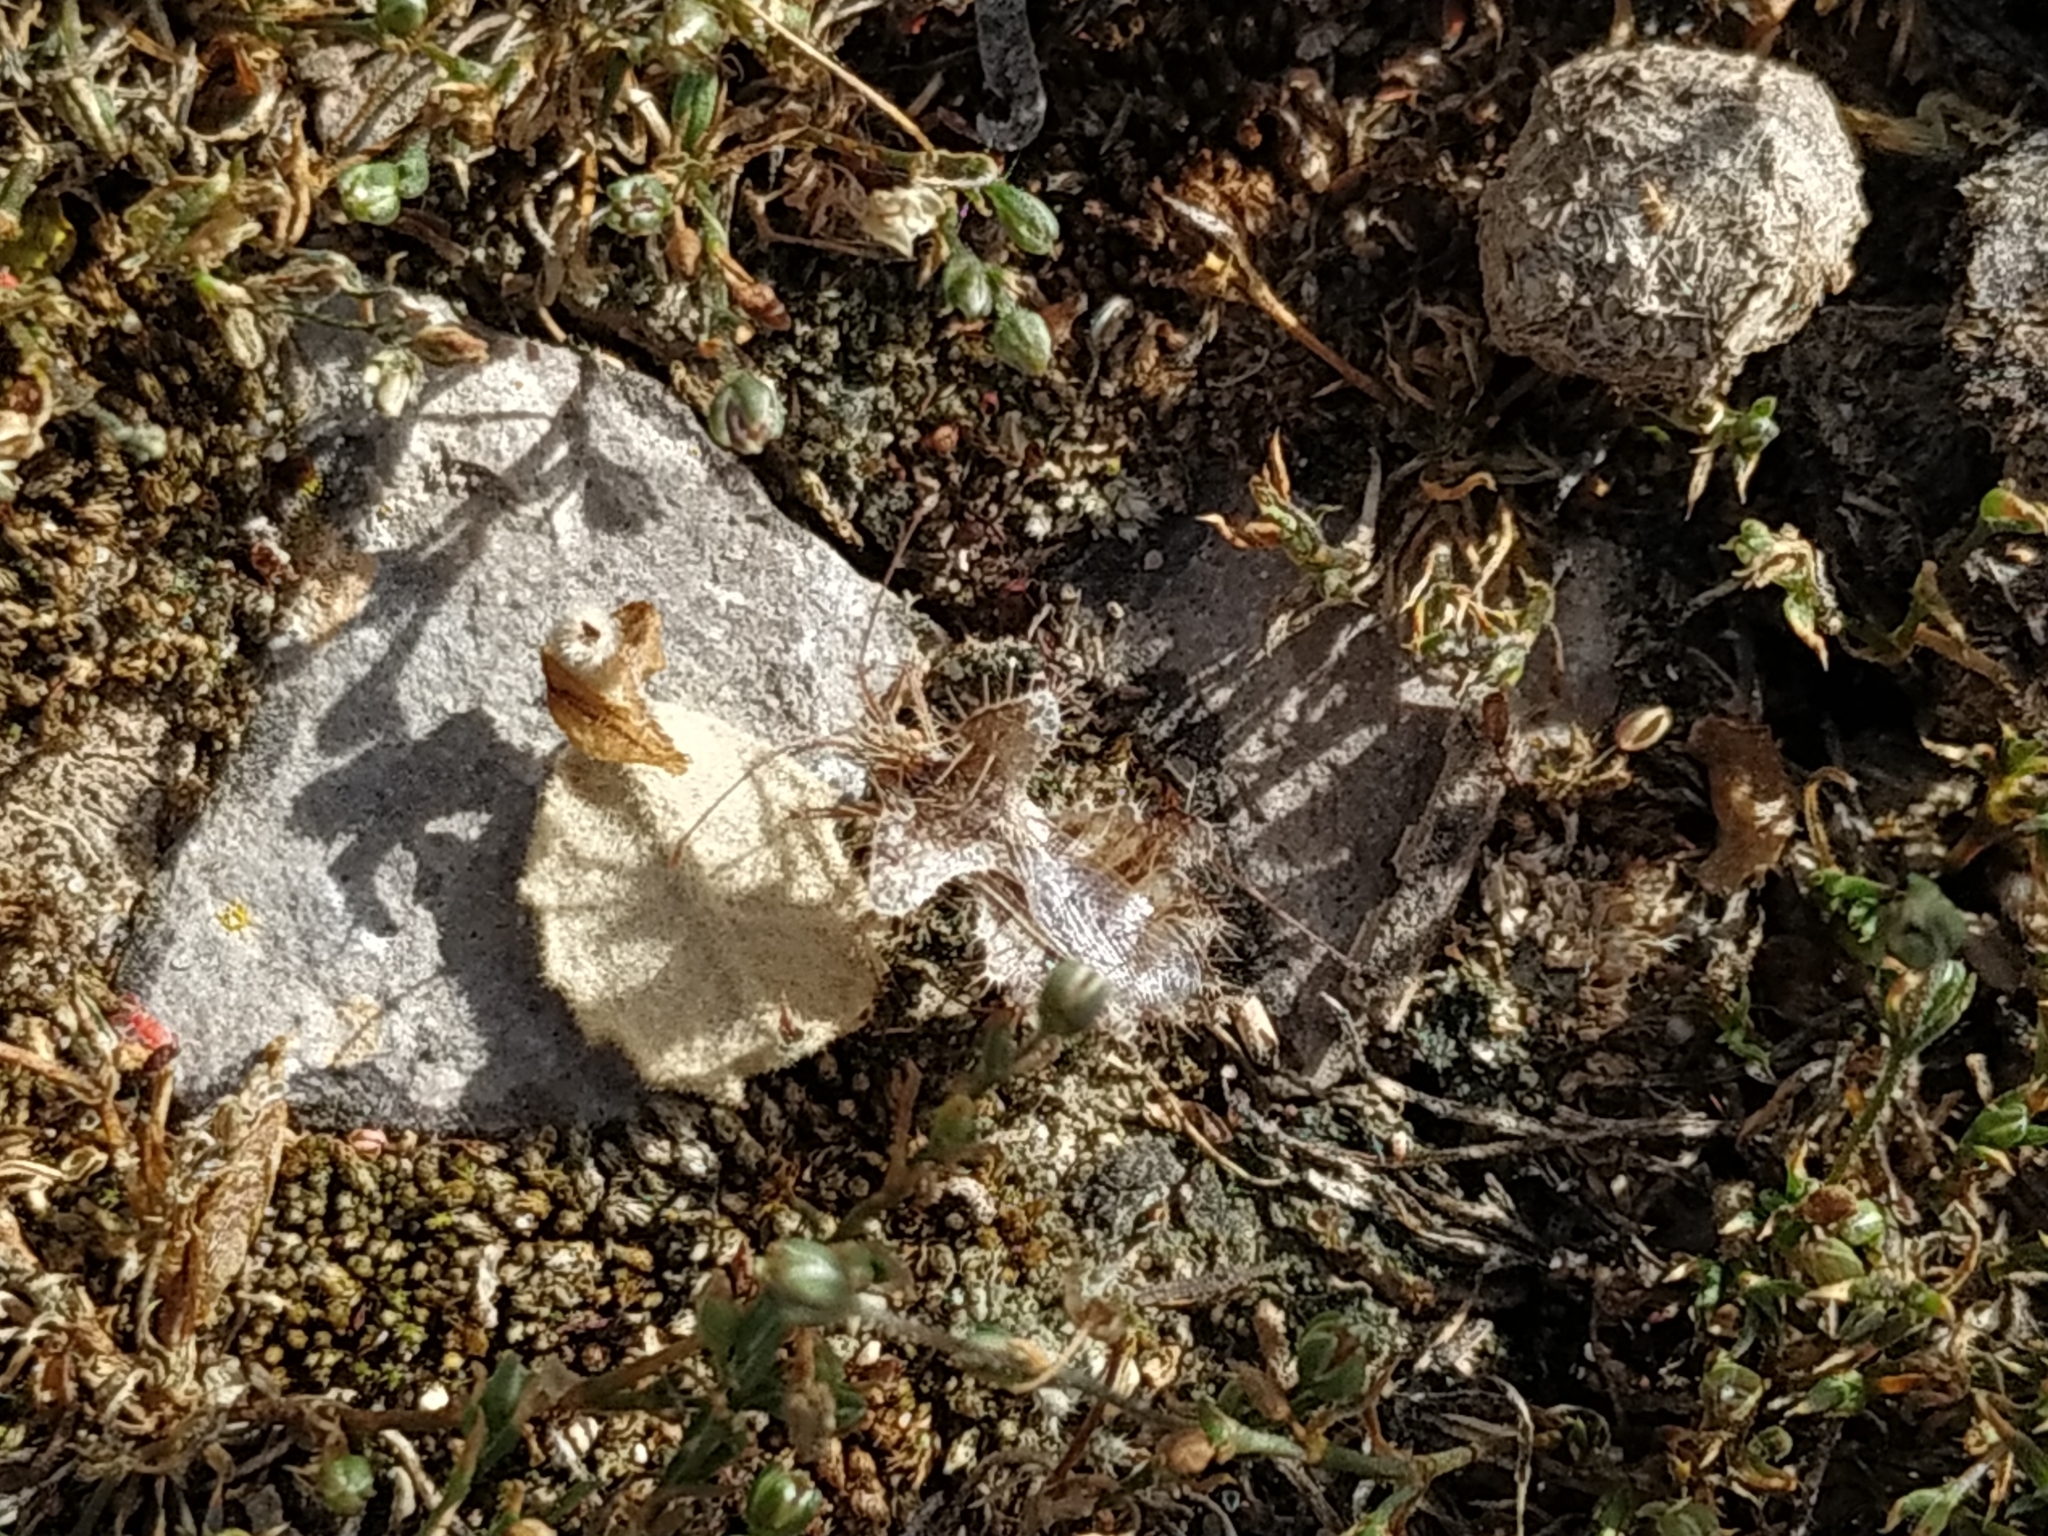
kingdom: Animalia
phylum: Arthropoda
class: Insecta
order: Hemiptera
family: Coreidae
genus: Phyllomorpha
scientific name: Phyllomorpha laciniata
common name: Golden egg bug
